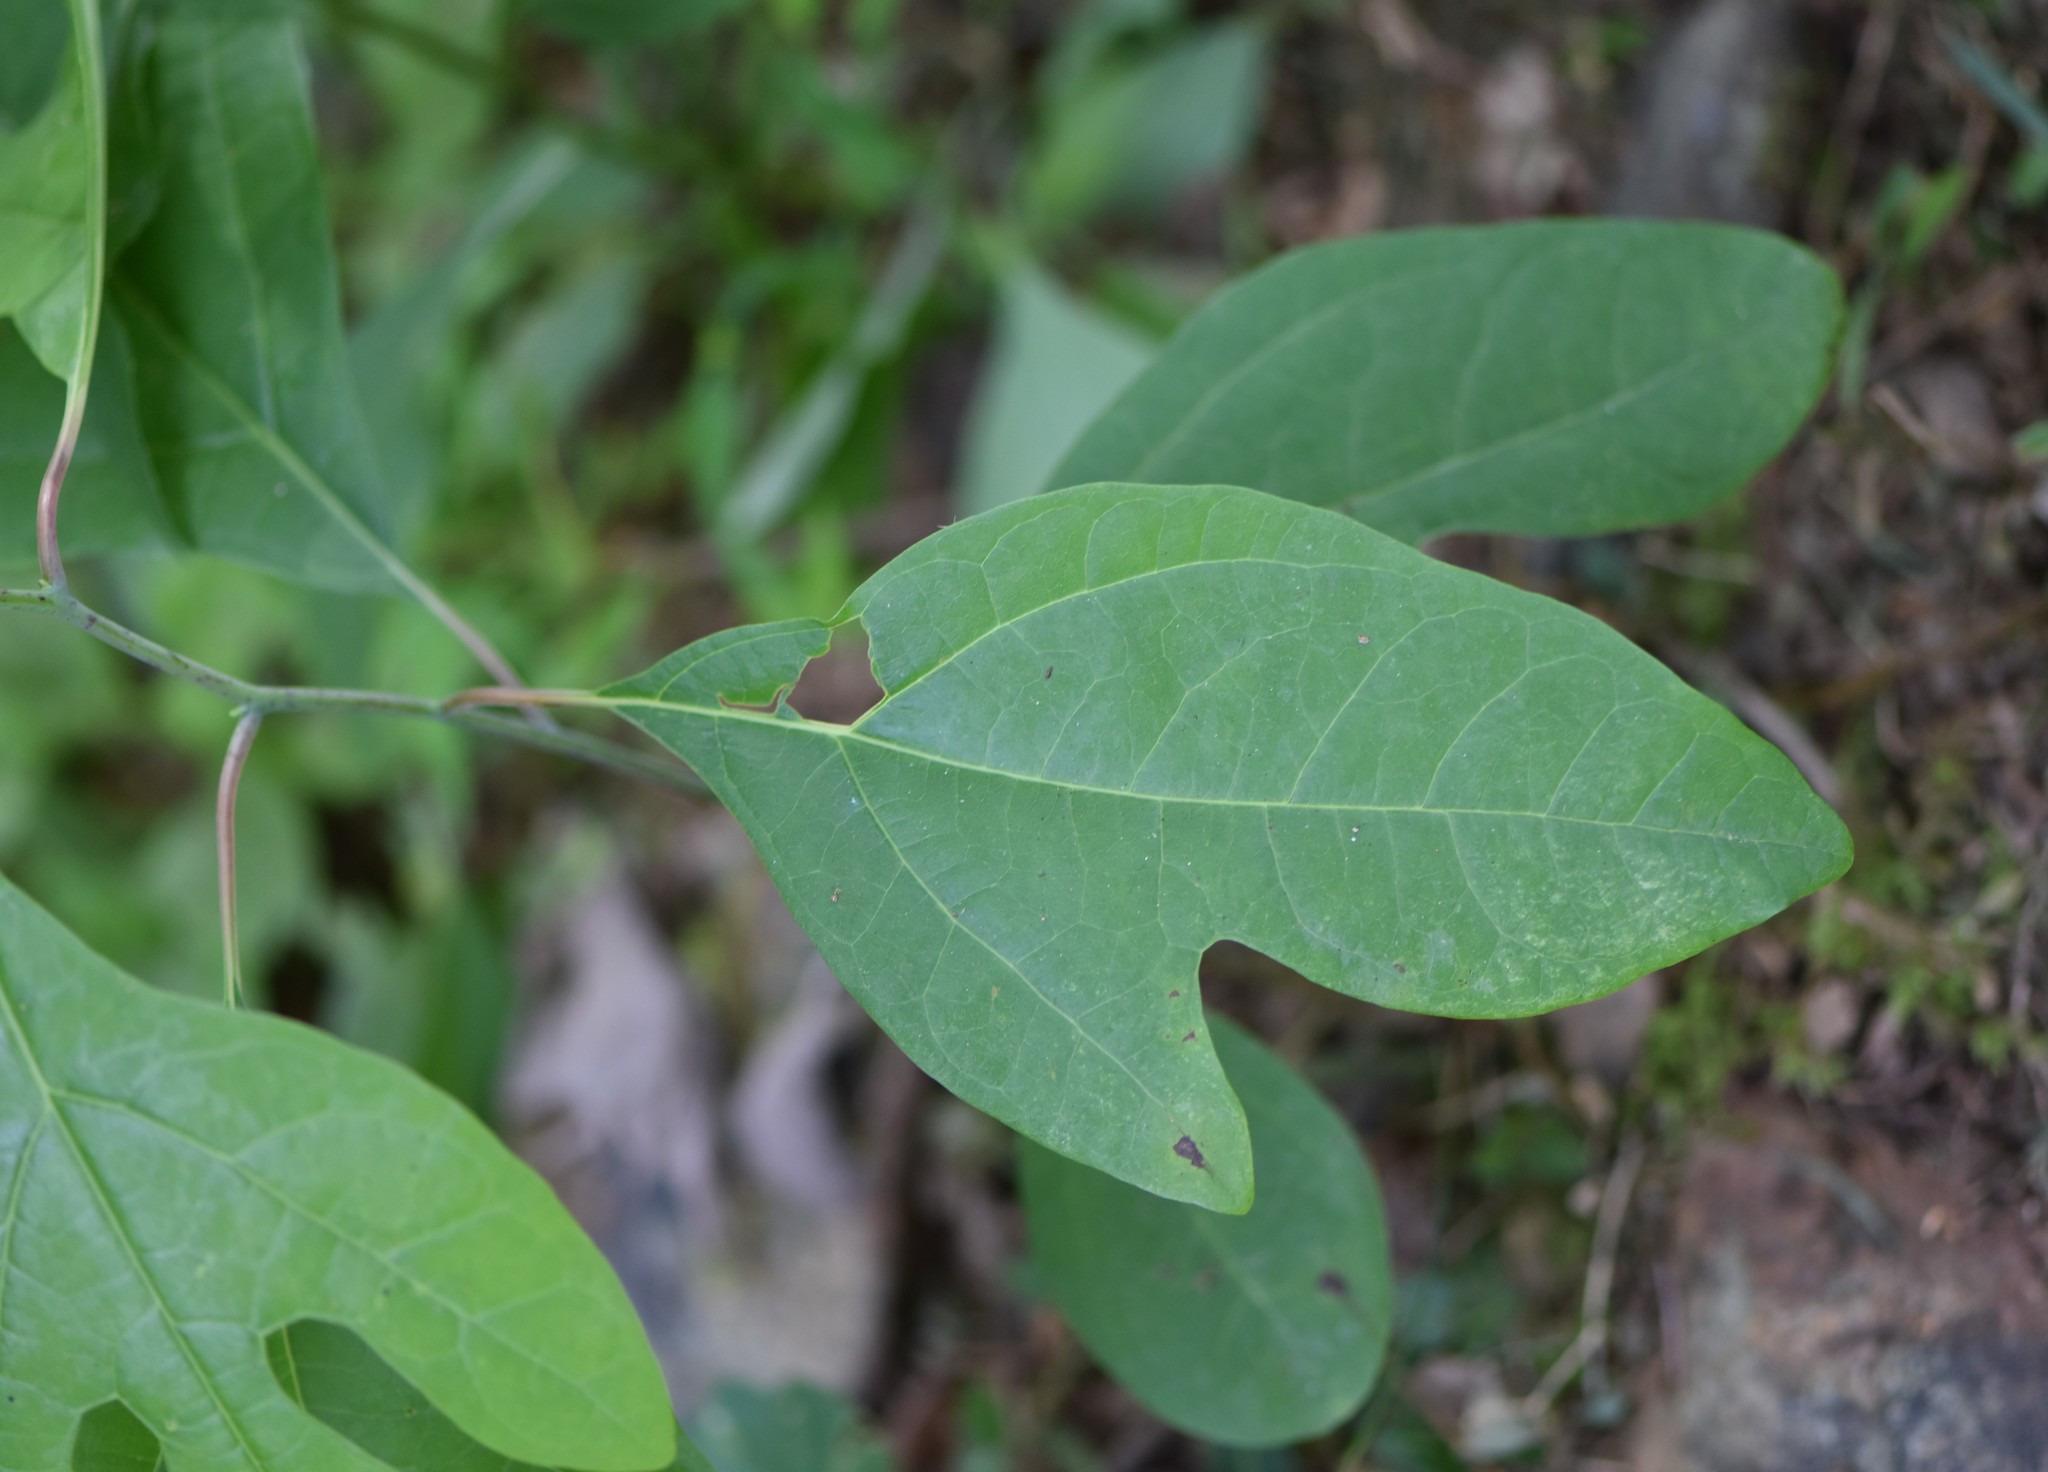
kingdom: Plantae
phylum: Tracheophyta
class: Magnoliopsida
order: Laurales
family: Lauraceae
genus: Sassafras
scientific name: Sassafras albidum
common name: Sassafras
